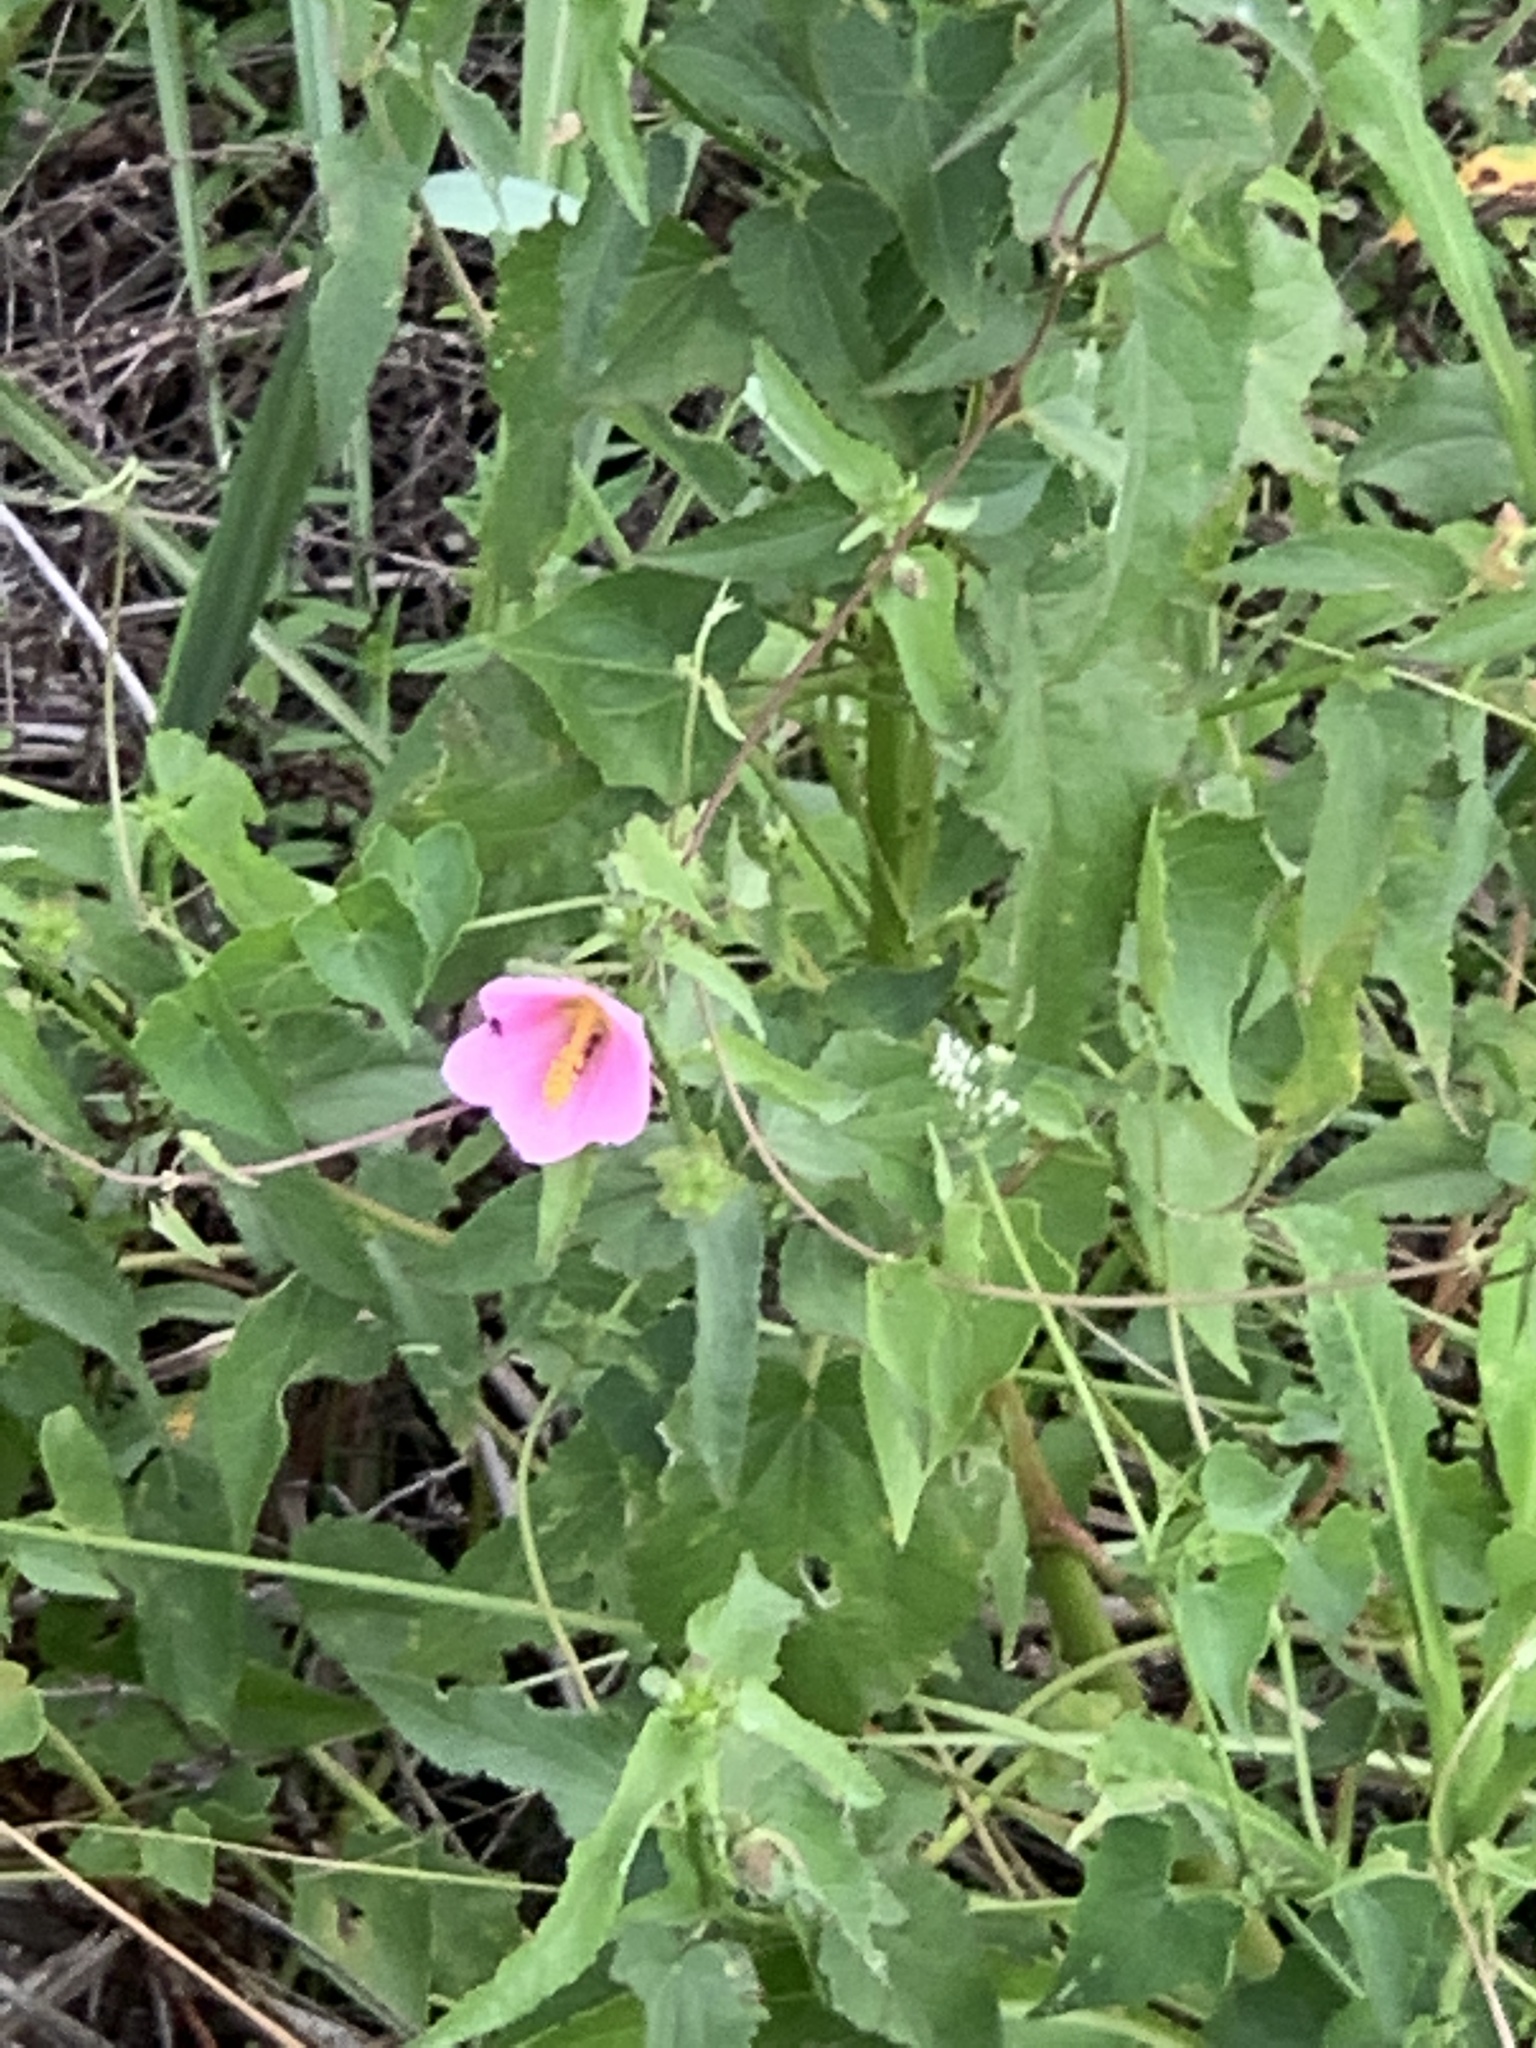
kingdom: Plantae
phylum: Tracheophyta
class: Magnoliopsida
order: Malvales
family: Malvaceae
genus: Kosteletzkya
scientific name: Kosteletzkya pentacarpos
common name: Virginia saltmarsh mallow
